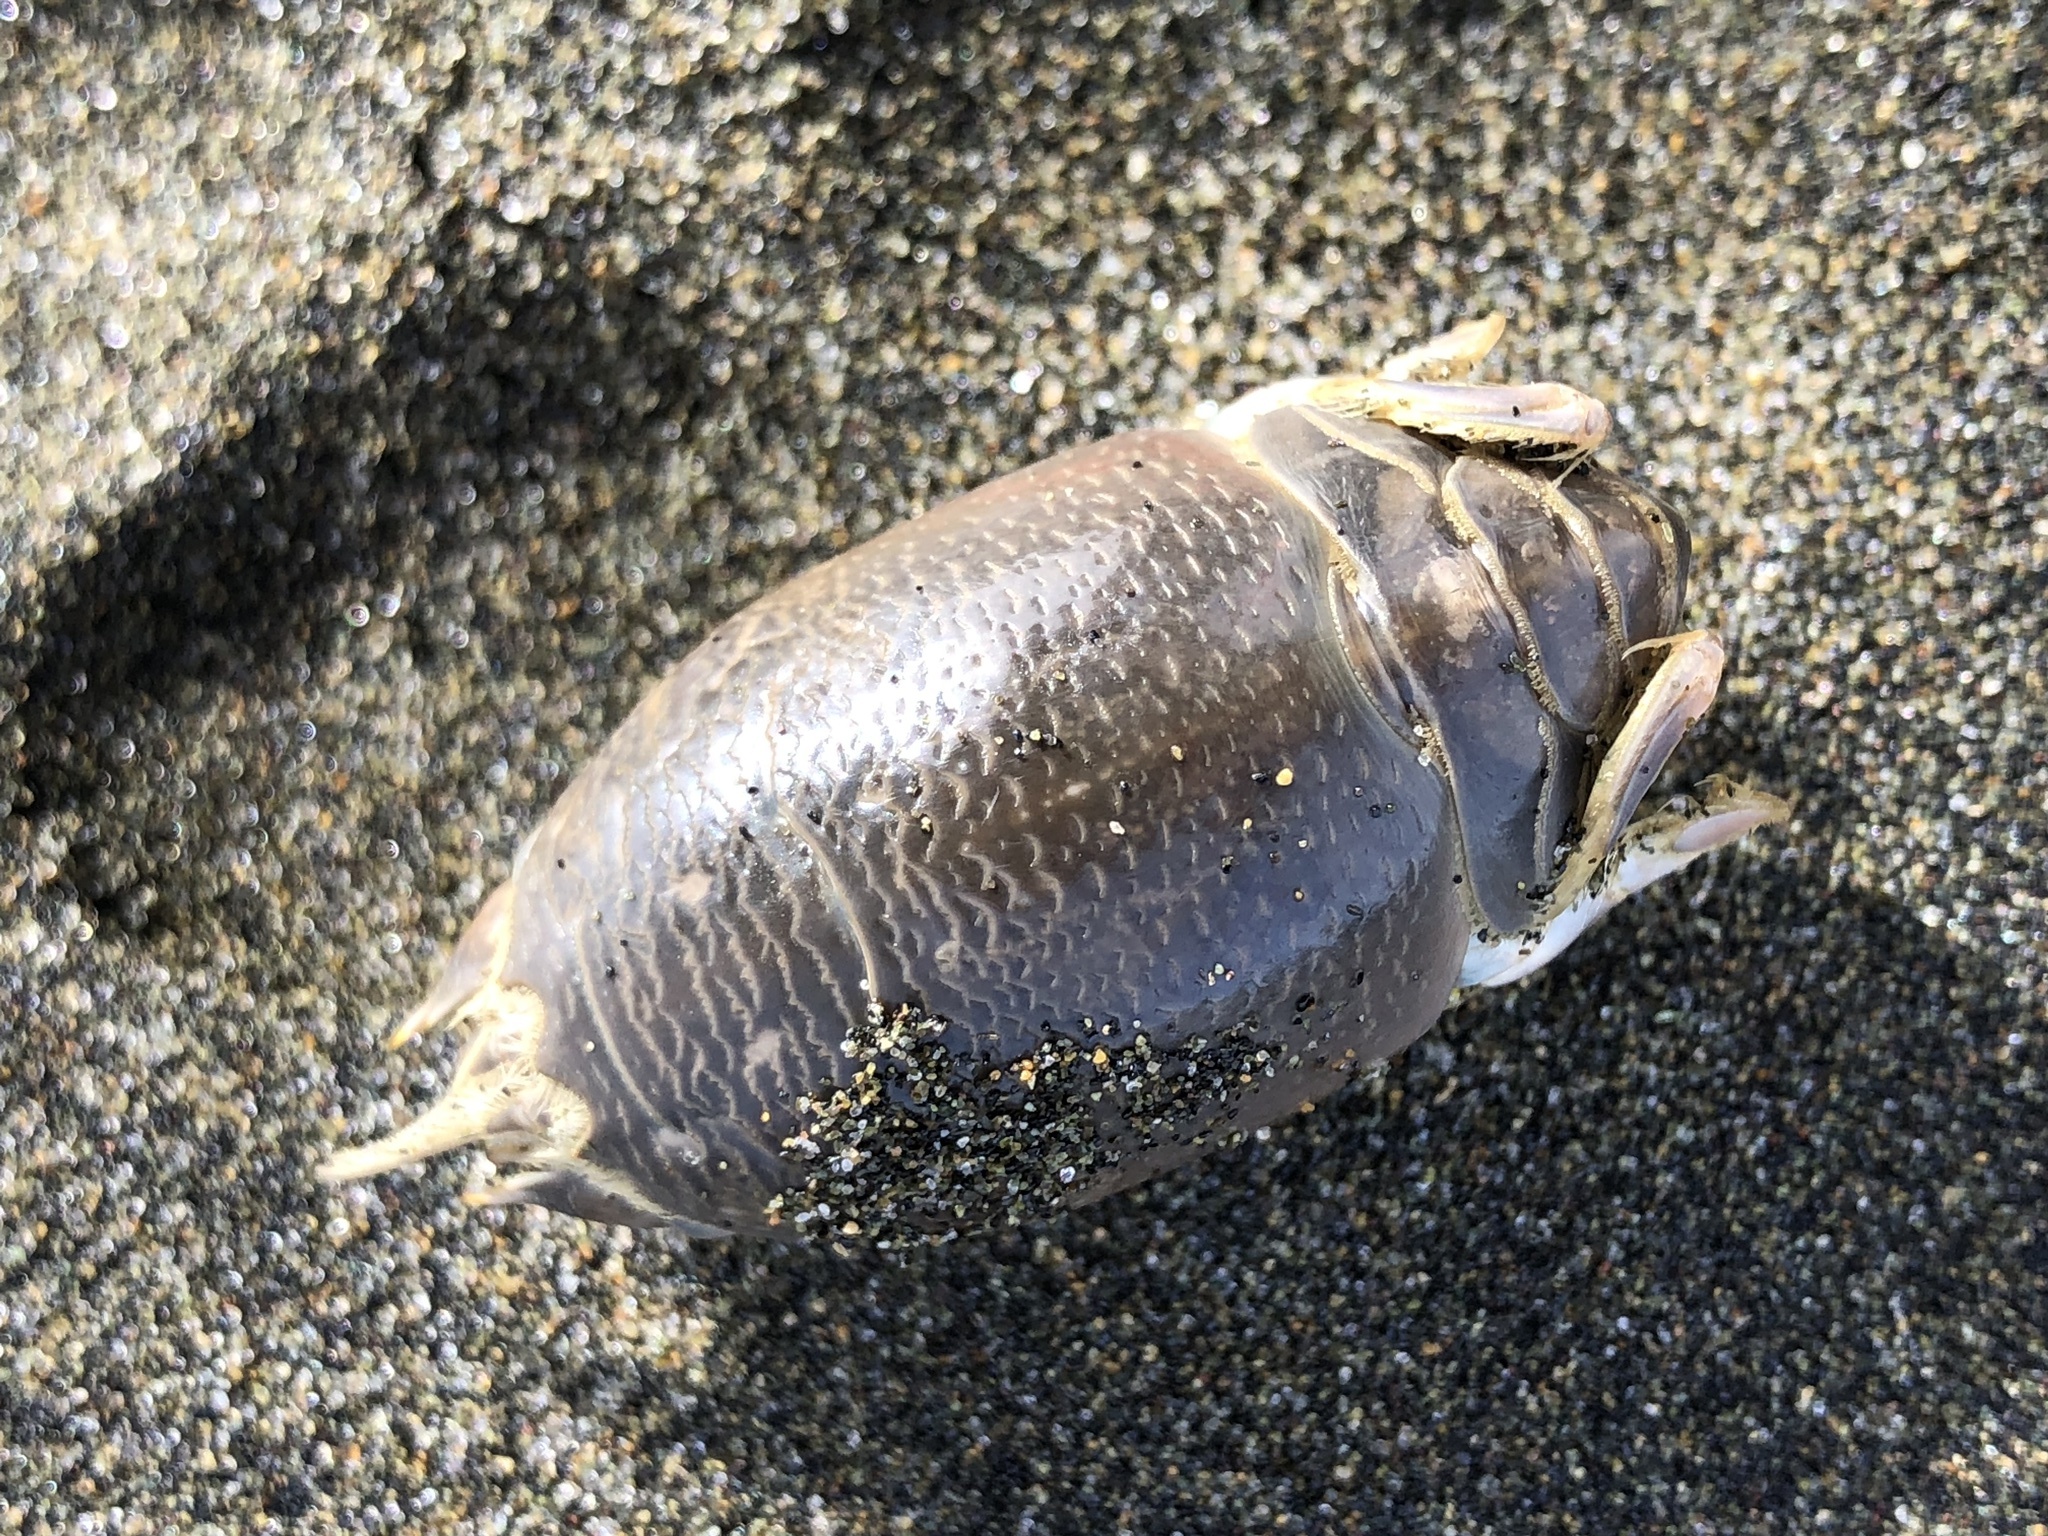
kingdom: Animalia
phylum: Arthropoda
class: Malacostraca
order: Decapoda
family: Hippidae
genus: Emerita
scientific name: Emerita analoga
